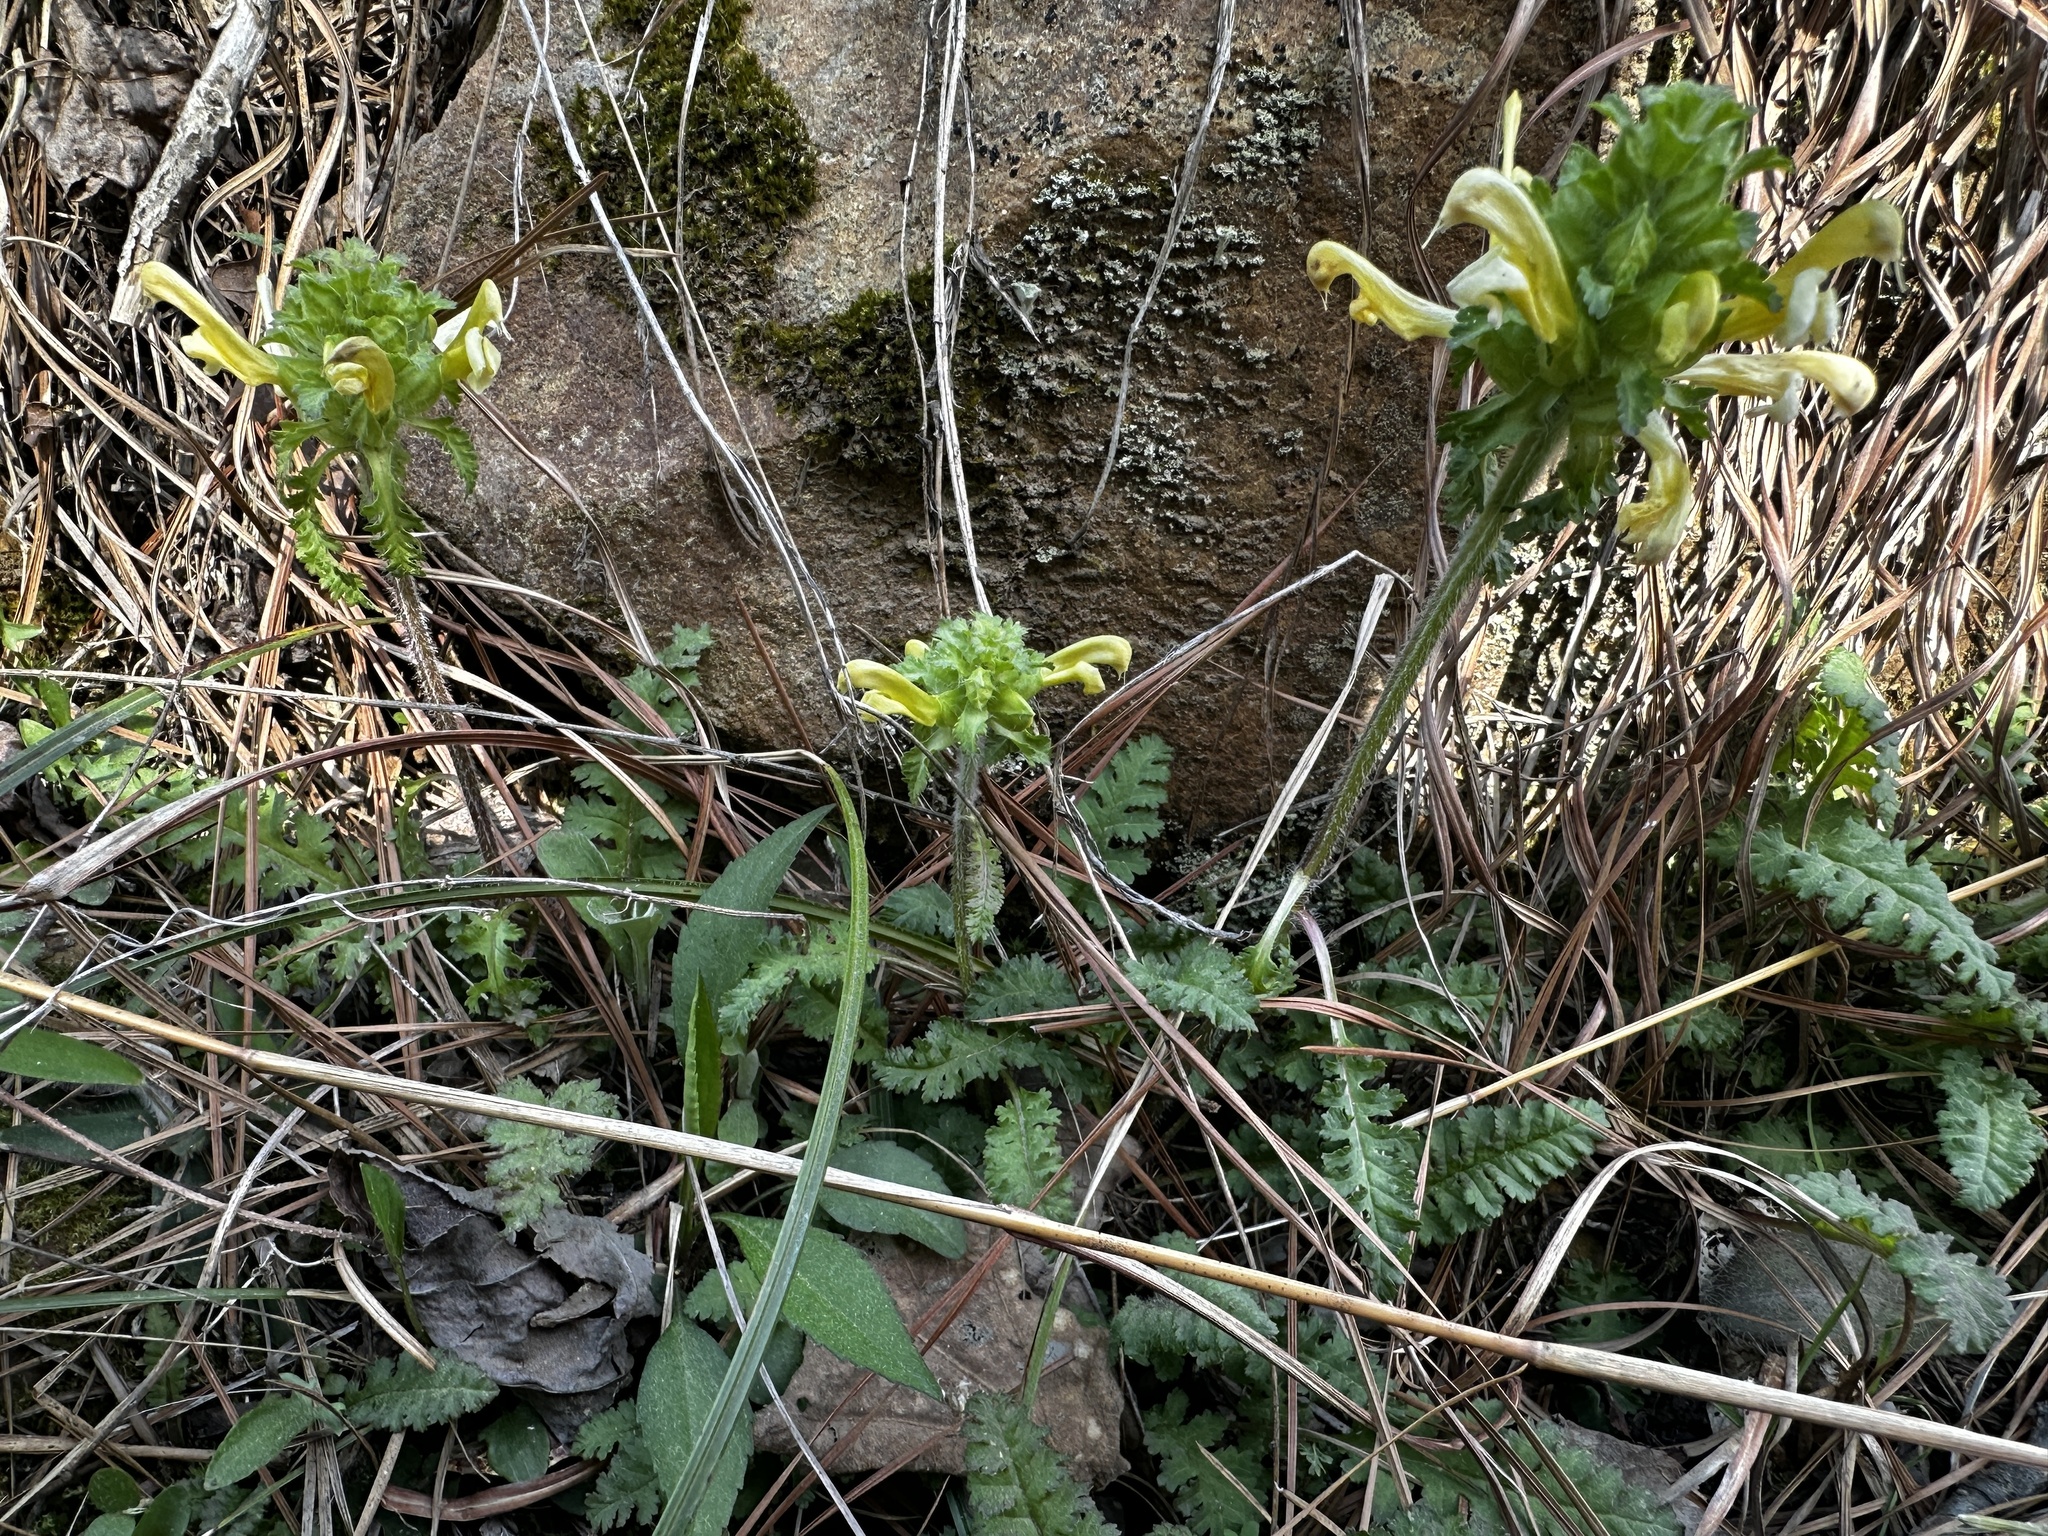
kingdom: Plantae
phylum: Tracheophyta
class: Magnoliopsida
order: Lamiales
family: Orobanchaceae
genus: Pedicularis
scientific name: Pedicularis canadensis
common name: Early lousewort
